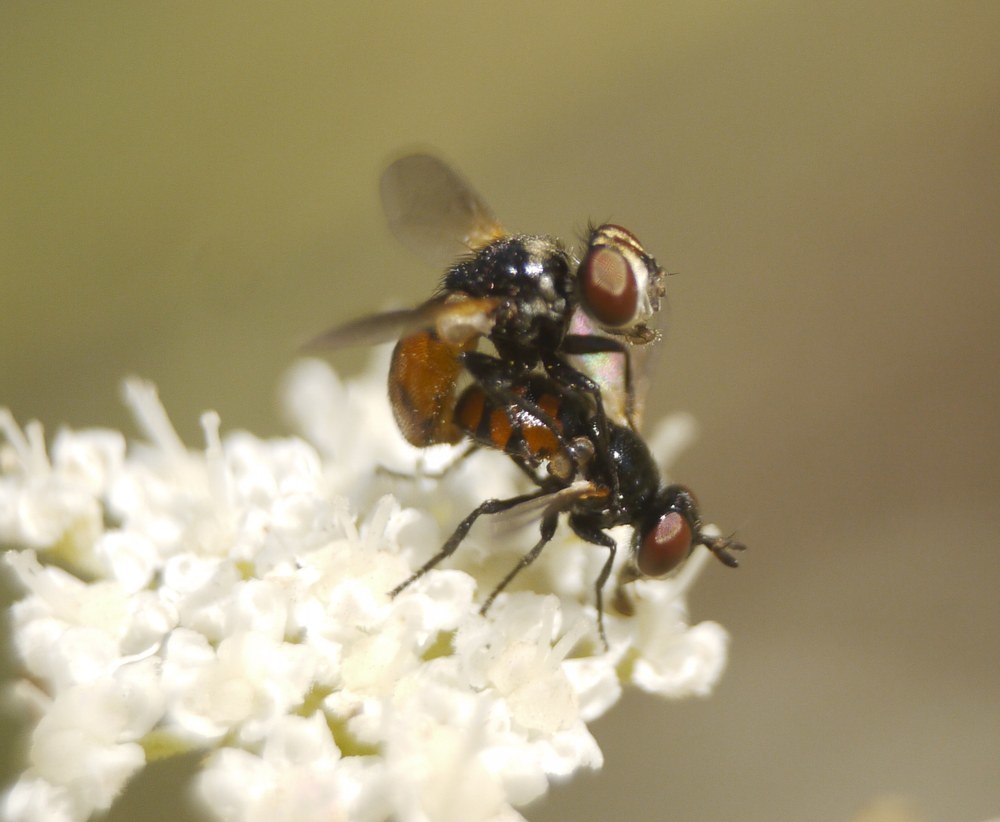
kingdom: Animalia
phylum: Arthropoda
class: Insecta
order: Diptera
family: Tachinidae
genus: Gymnosoma
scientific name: Gymnosoma nitens
